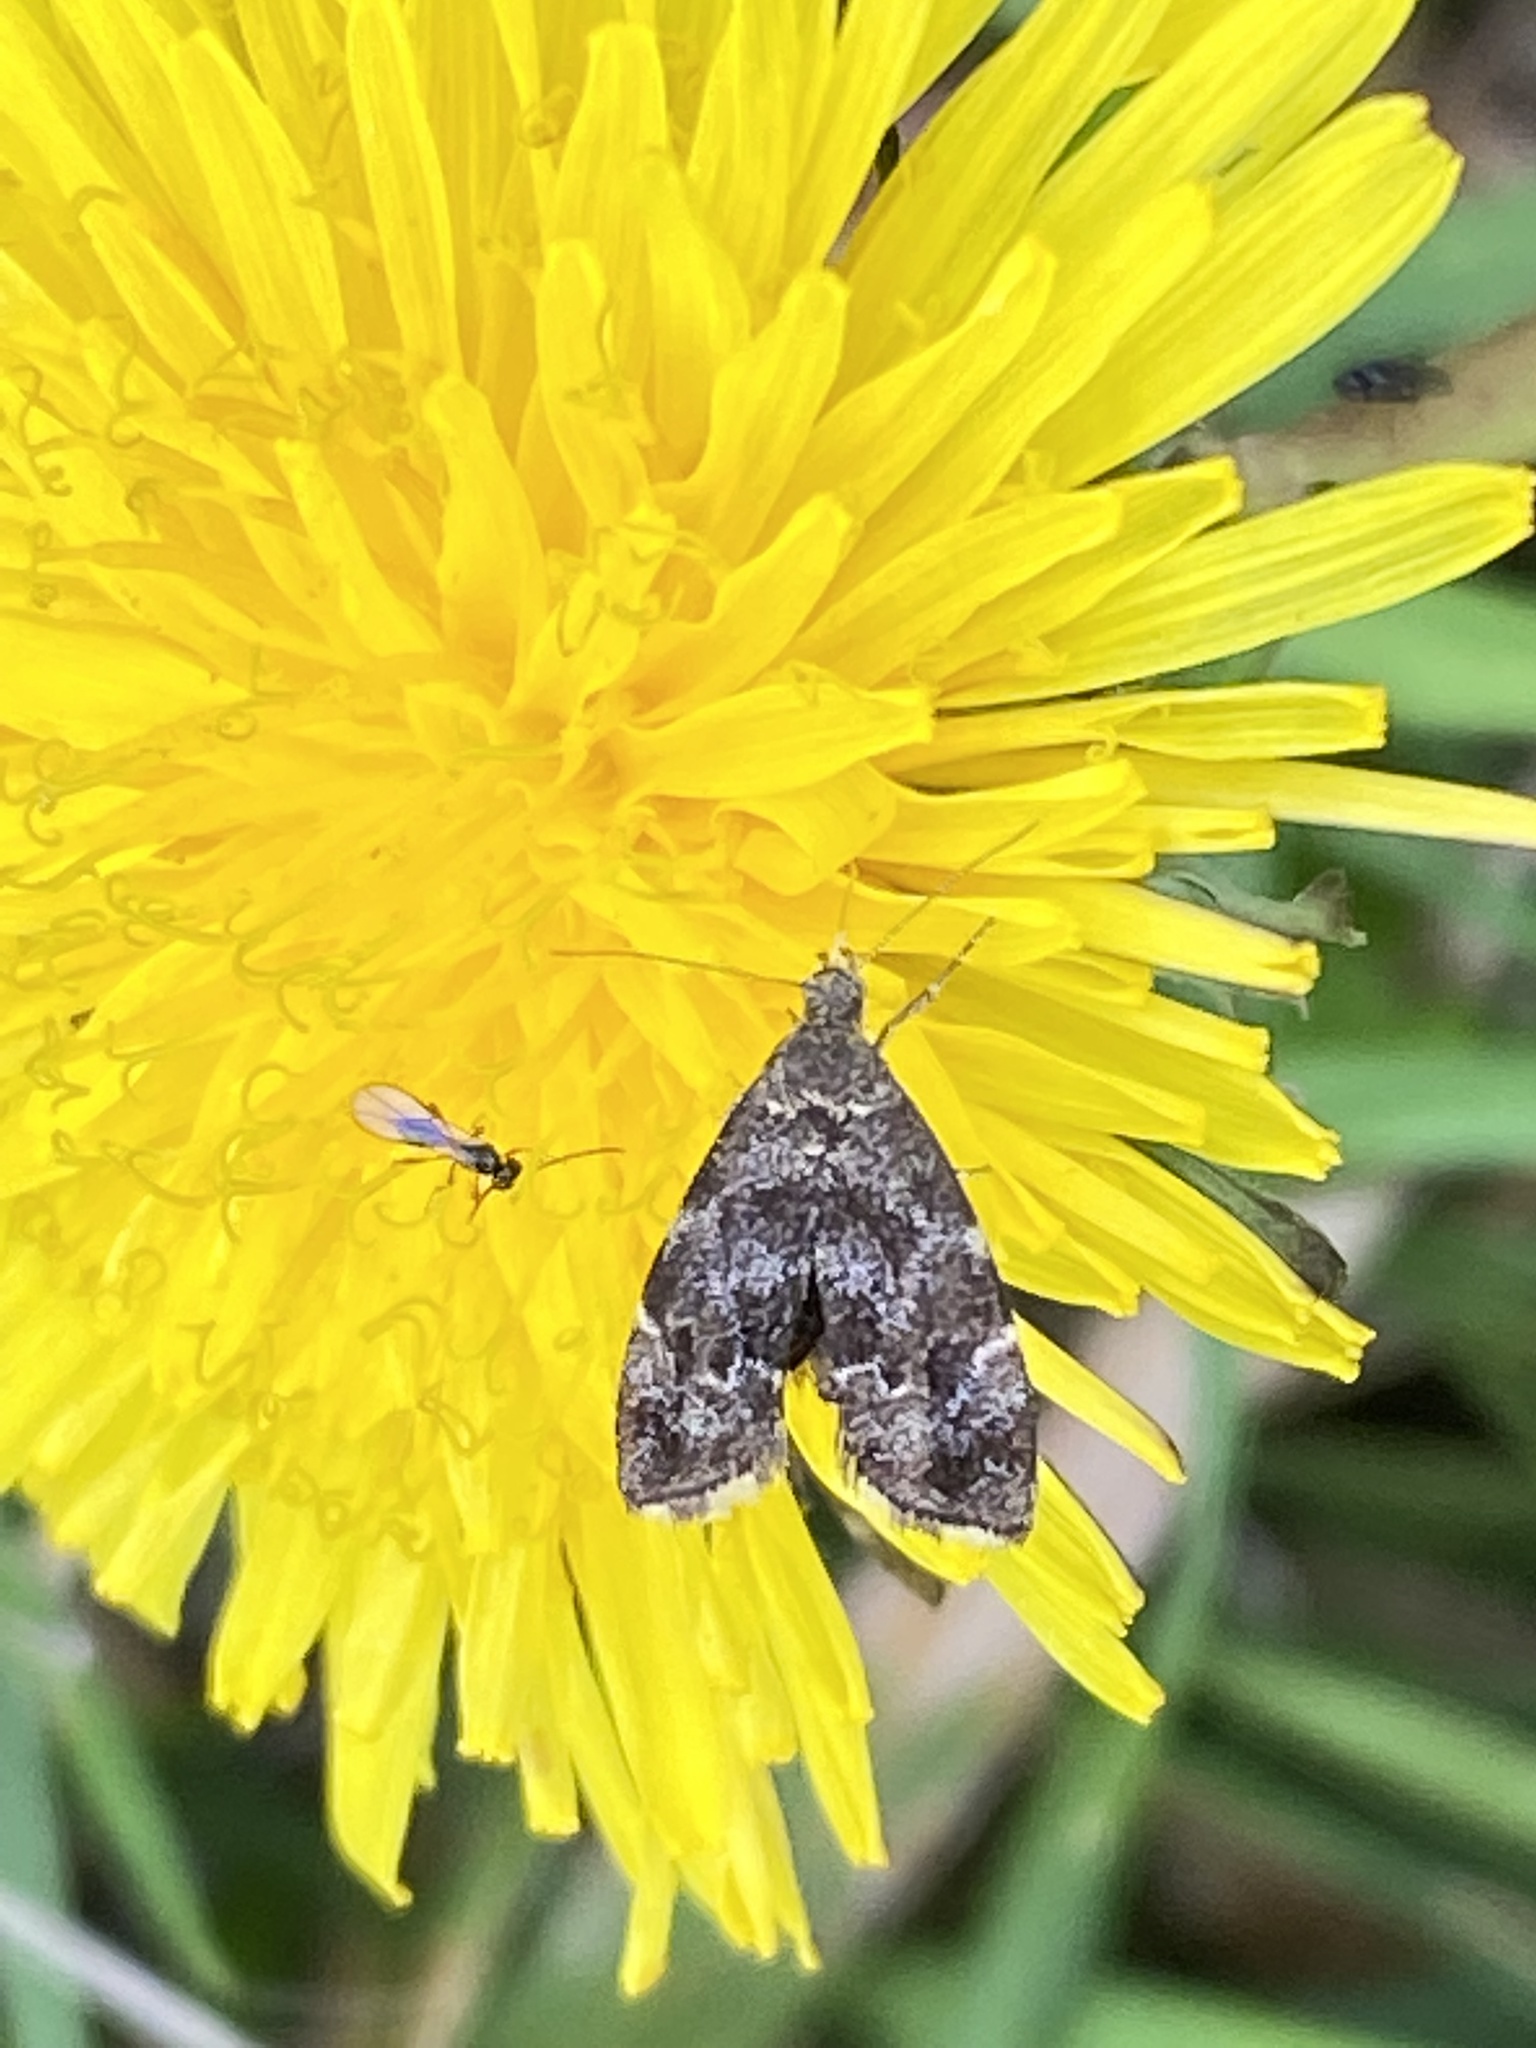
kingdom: Animalia
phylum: Arthropoda
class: Insecta
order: Lepidoptera
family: Choreutidae
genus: Anthophila
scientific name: Anthophila fabriciana
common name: Nettle-tap
